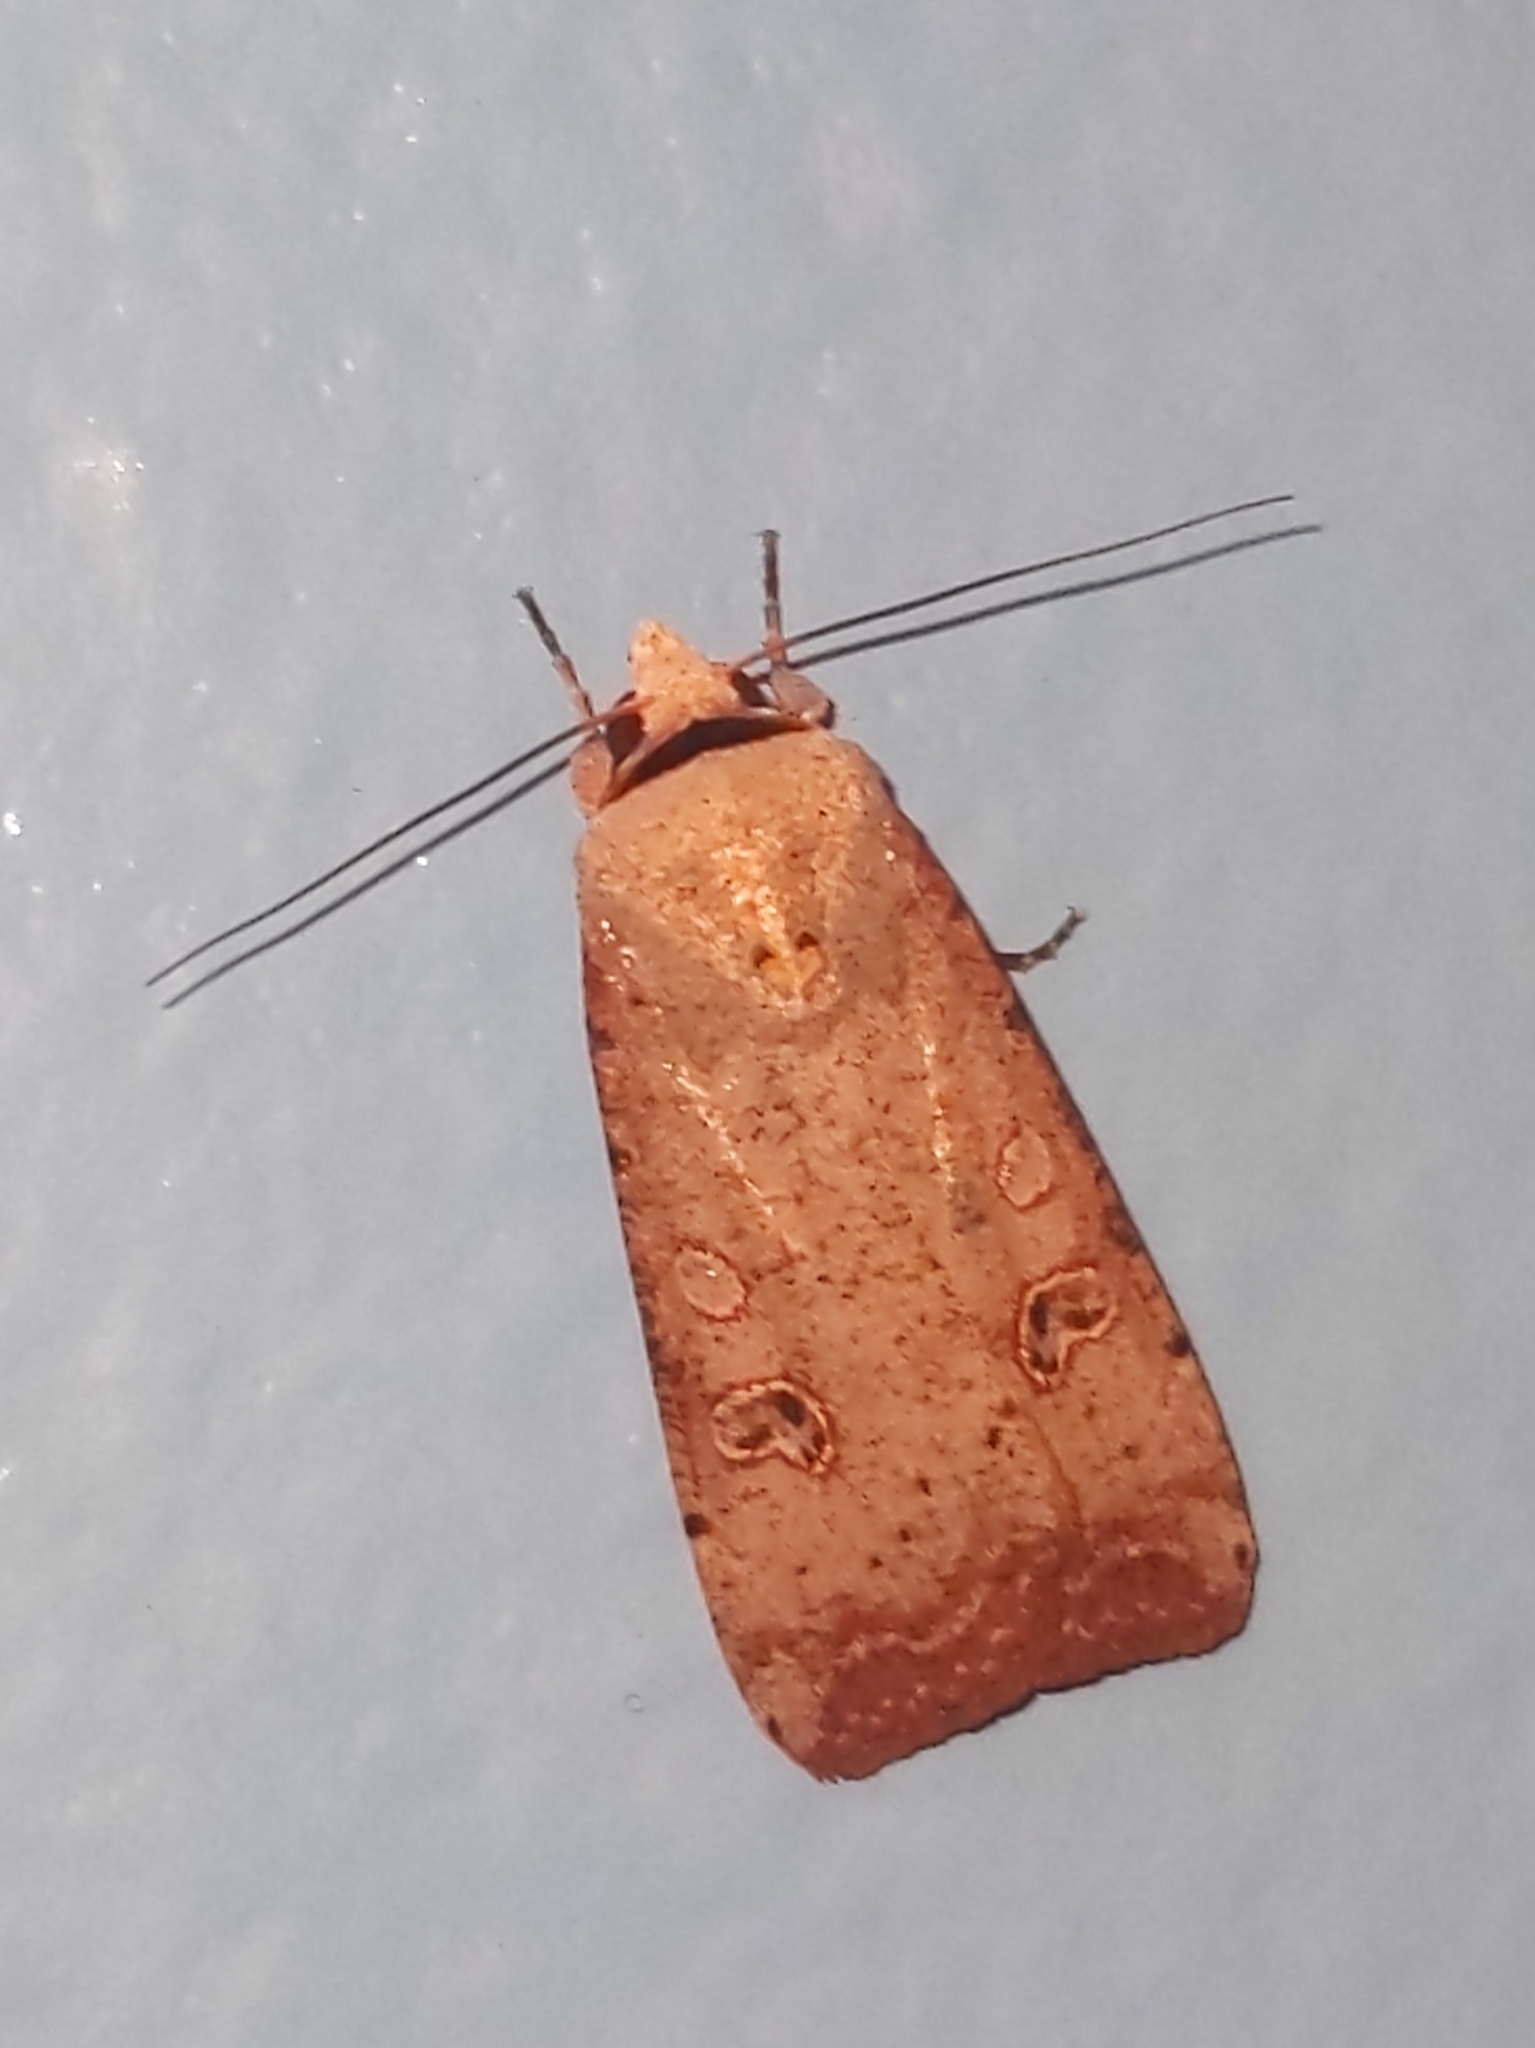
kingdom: Animalia
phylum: Arthropoda
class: Insecta
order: Lepidoptera
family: Noctuidae
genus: Anicla
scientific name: Anicla infecta
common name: Green cutworm
